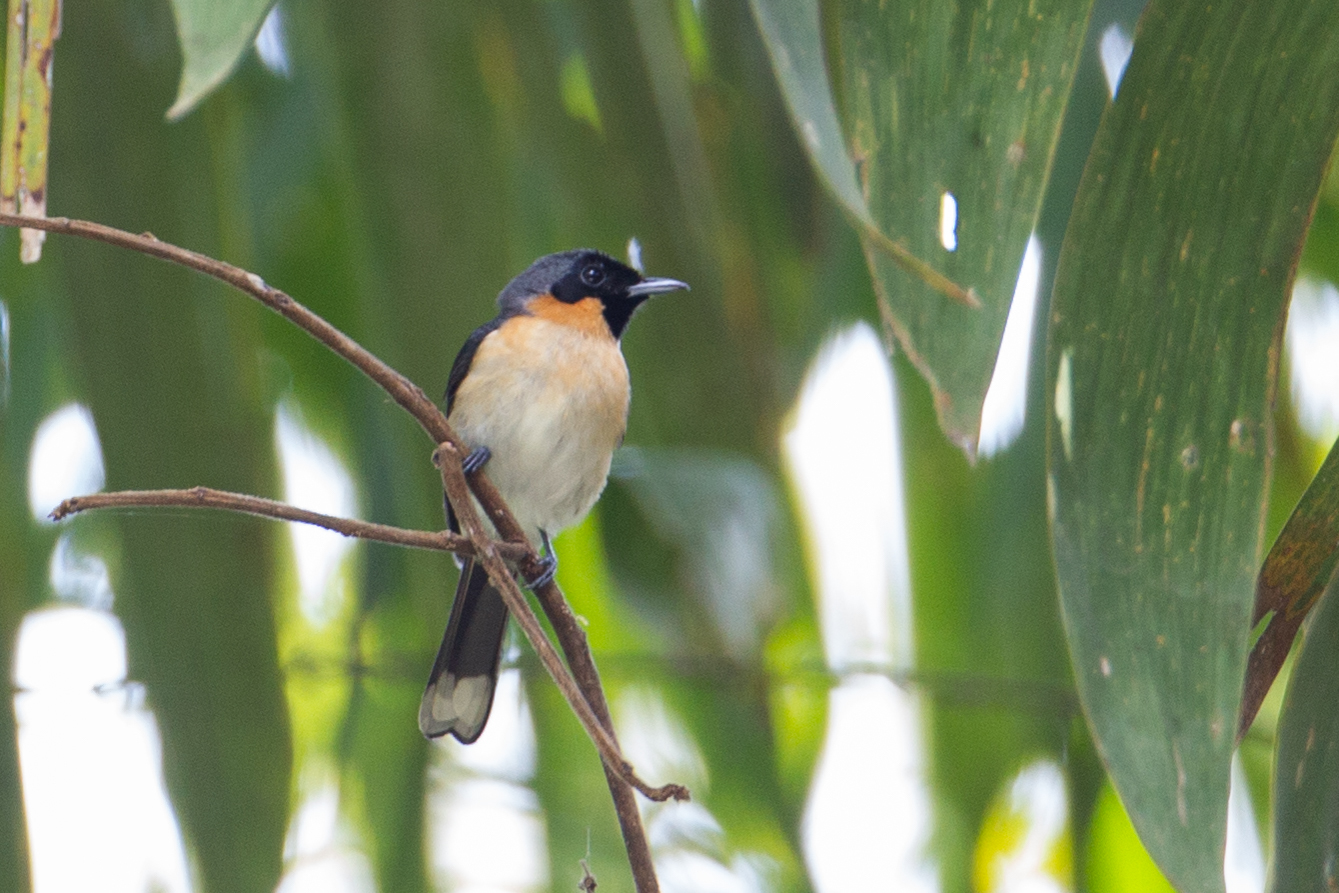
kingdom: Animalia
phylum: Chordata
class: Aves
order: Passeriformes
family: Monarchidae
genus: Symposiachrus
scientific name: Symposiachrus trivirgatus
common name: Spectacled monarch
